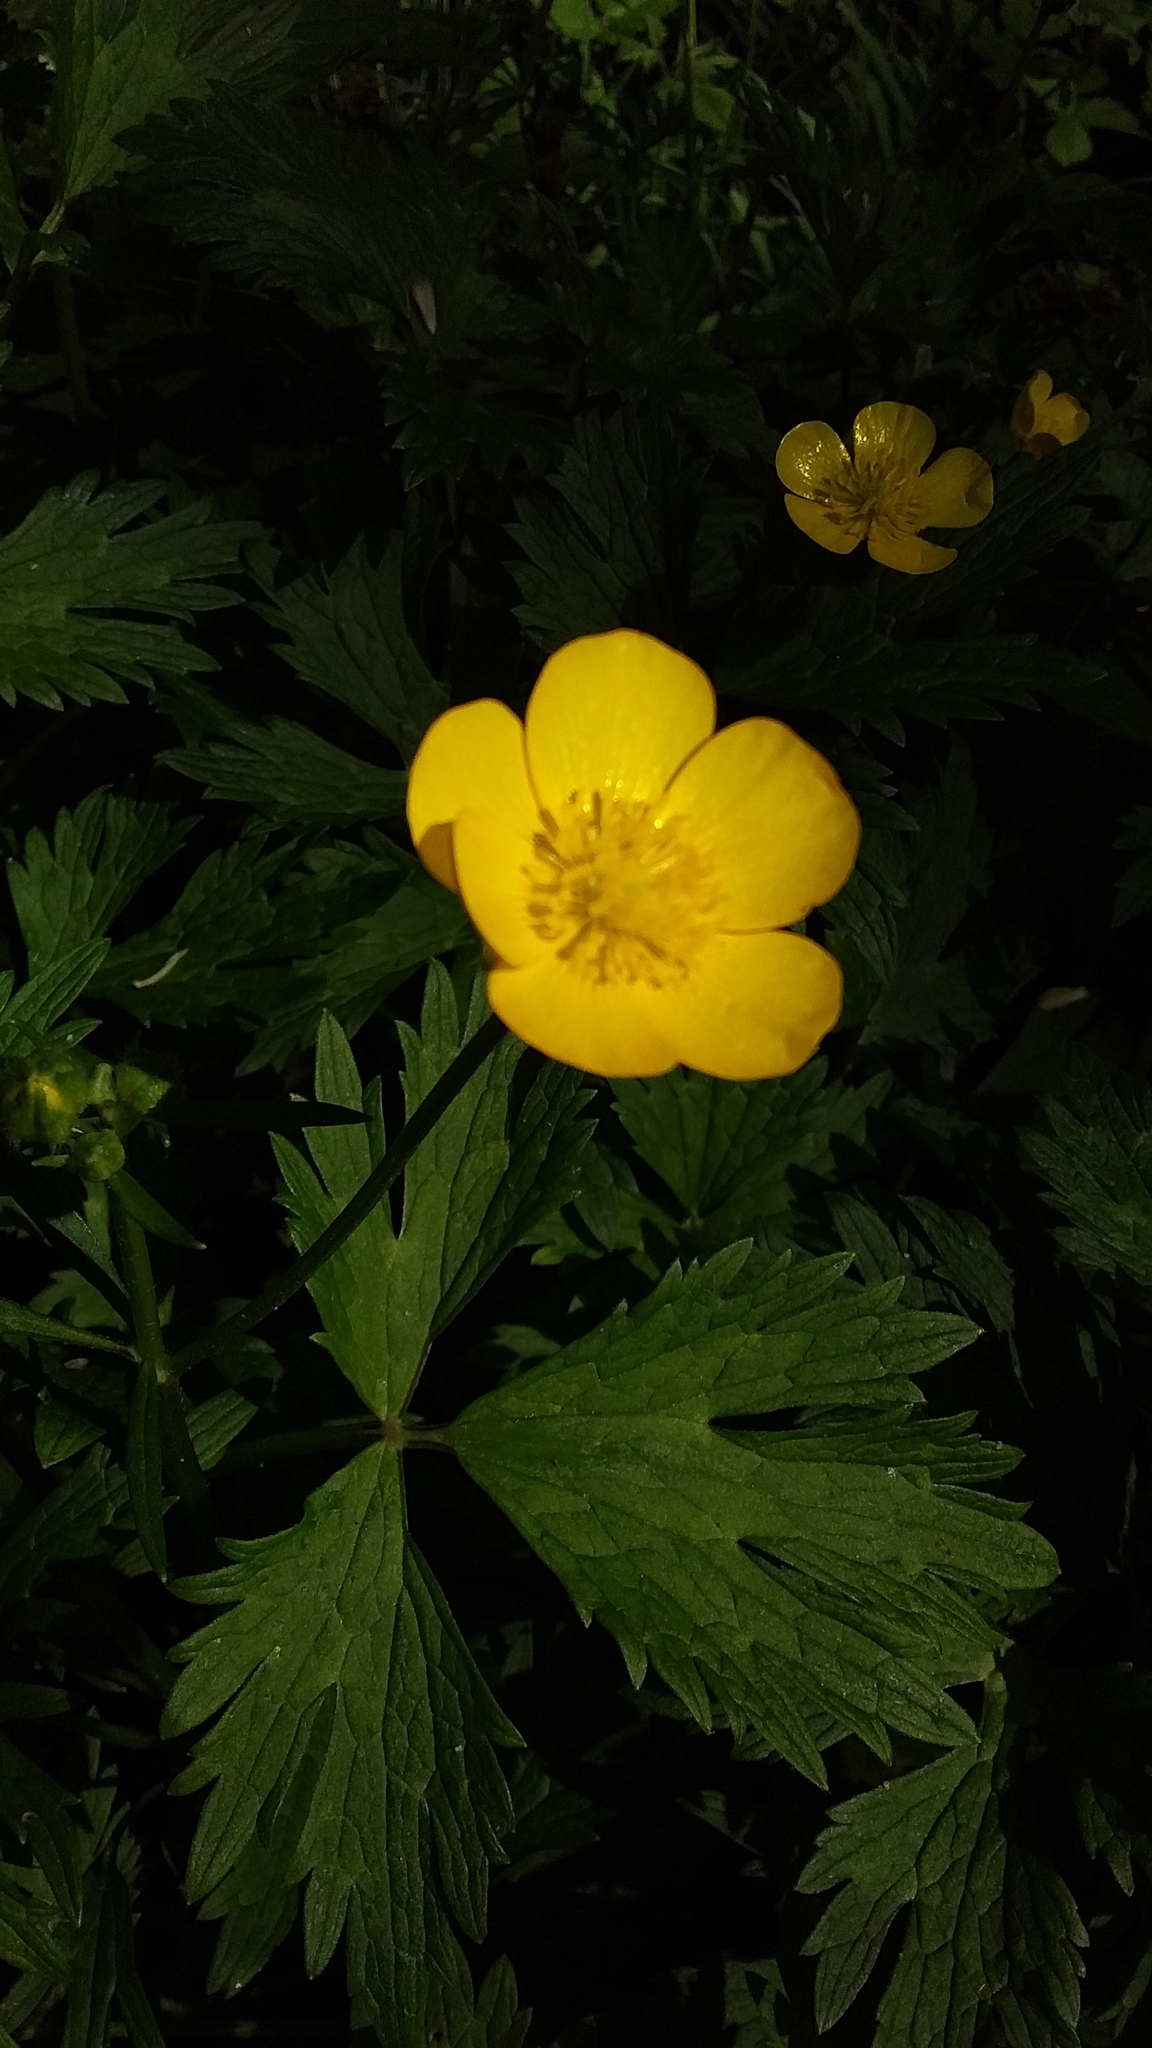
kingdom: Plantae
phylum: Tracheophyta
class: Magnoliopsida
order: Ranunculales
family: Ranunculaceae
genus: Ranunculus
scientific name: Ranunculus repens
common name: Creeping buttercup
